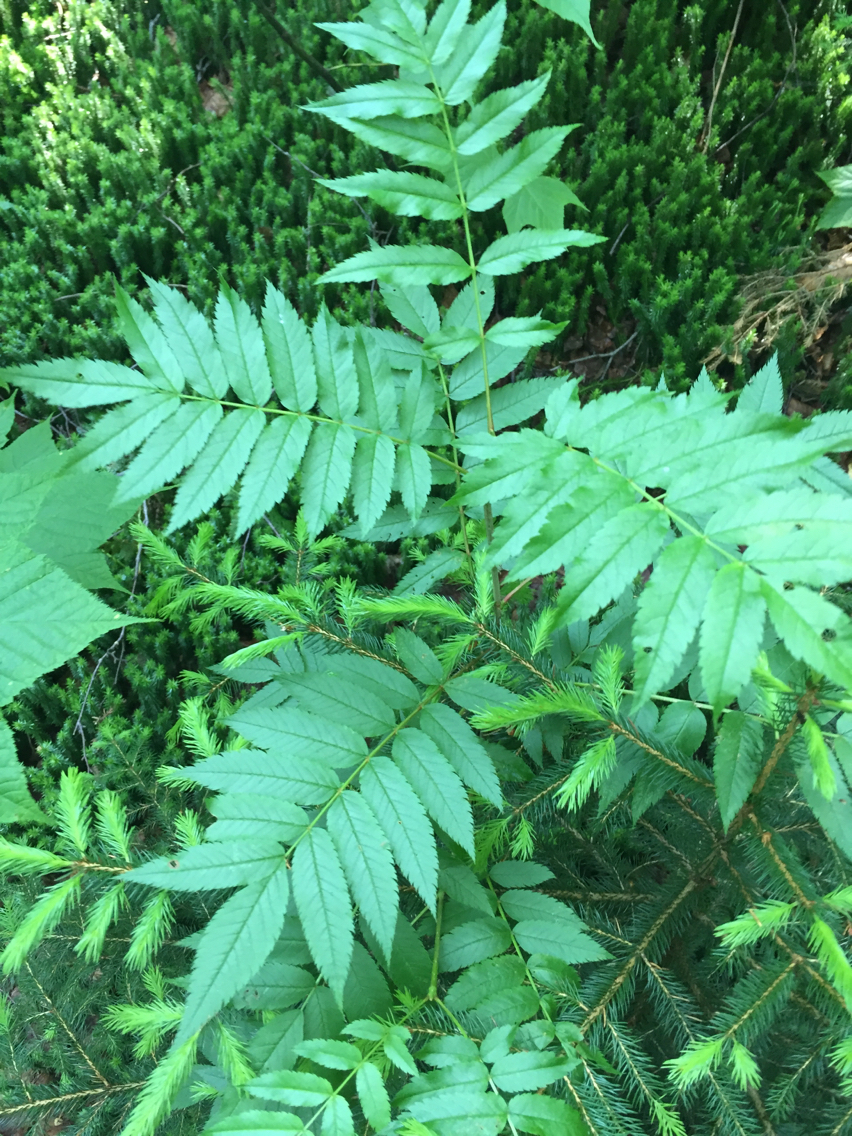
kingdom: Plantae
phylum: Tracheophyta
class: Magnoliopsida
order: Rosales
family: Rosaceae
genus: Sorbus
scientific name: Sorbus americana
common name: American mountain-ash
